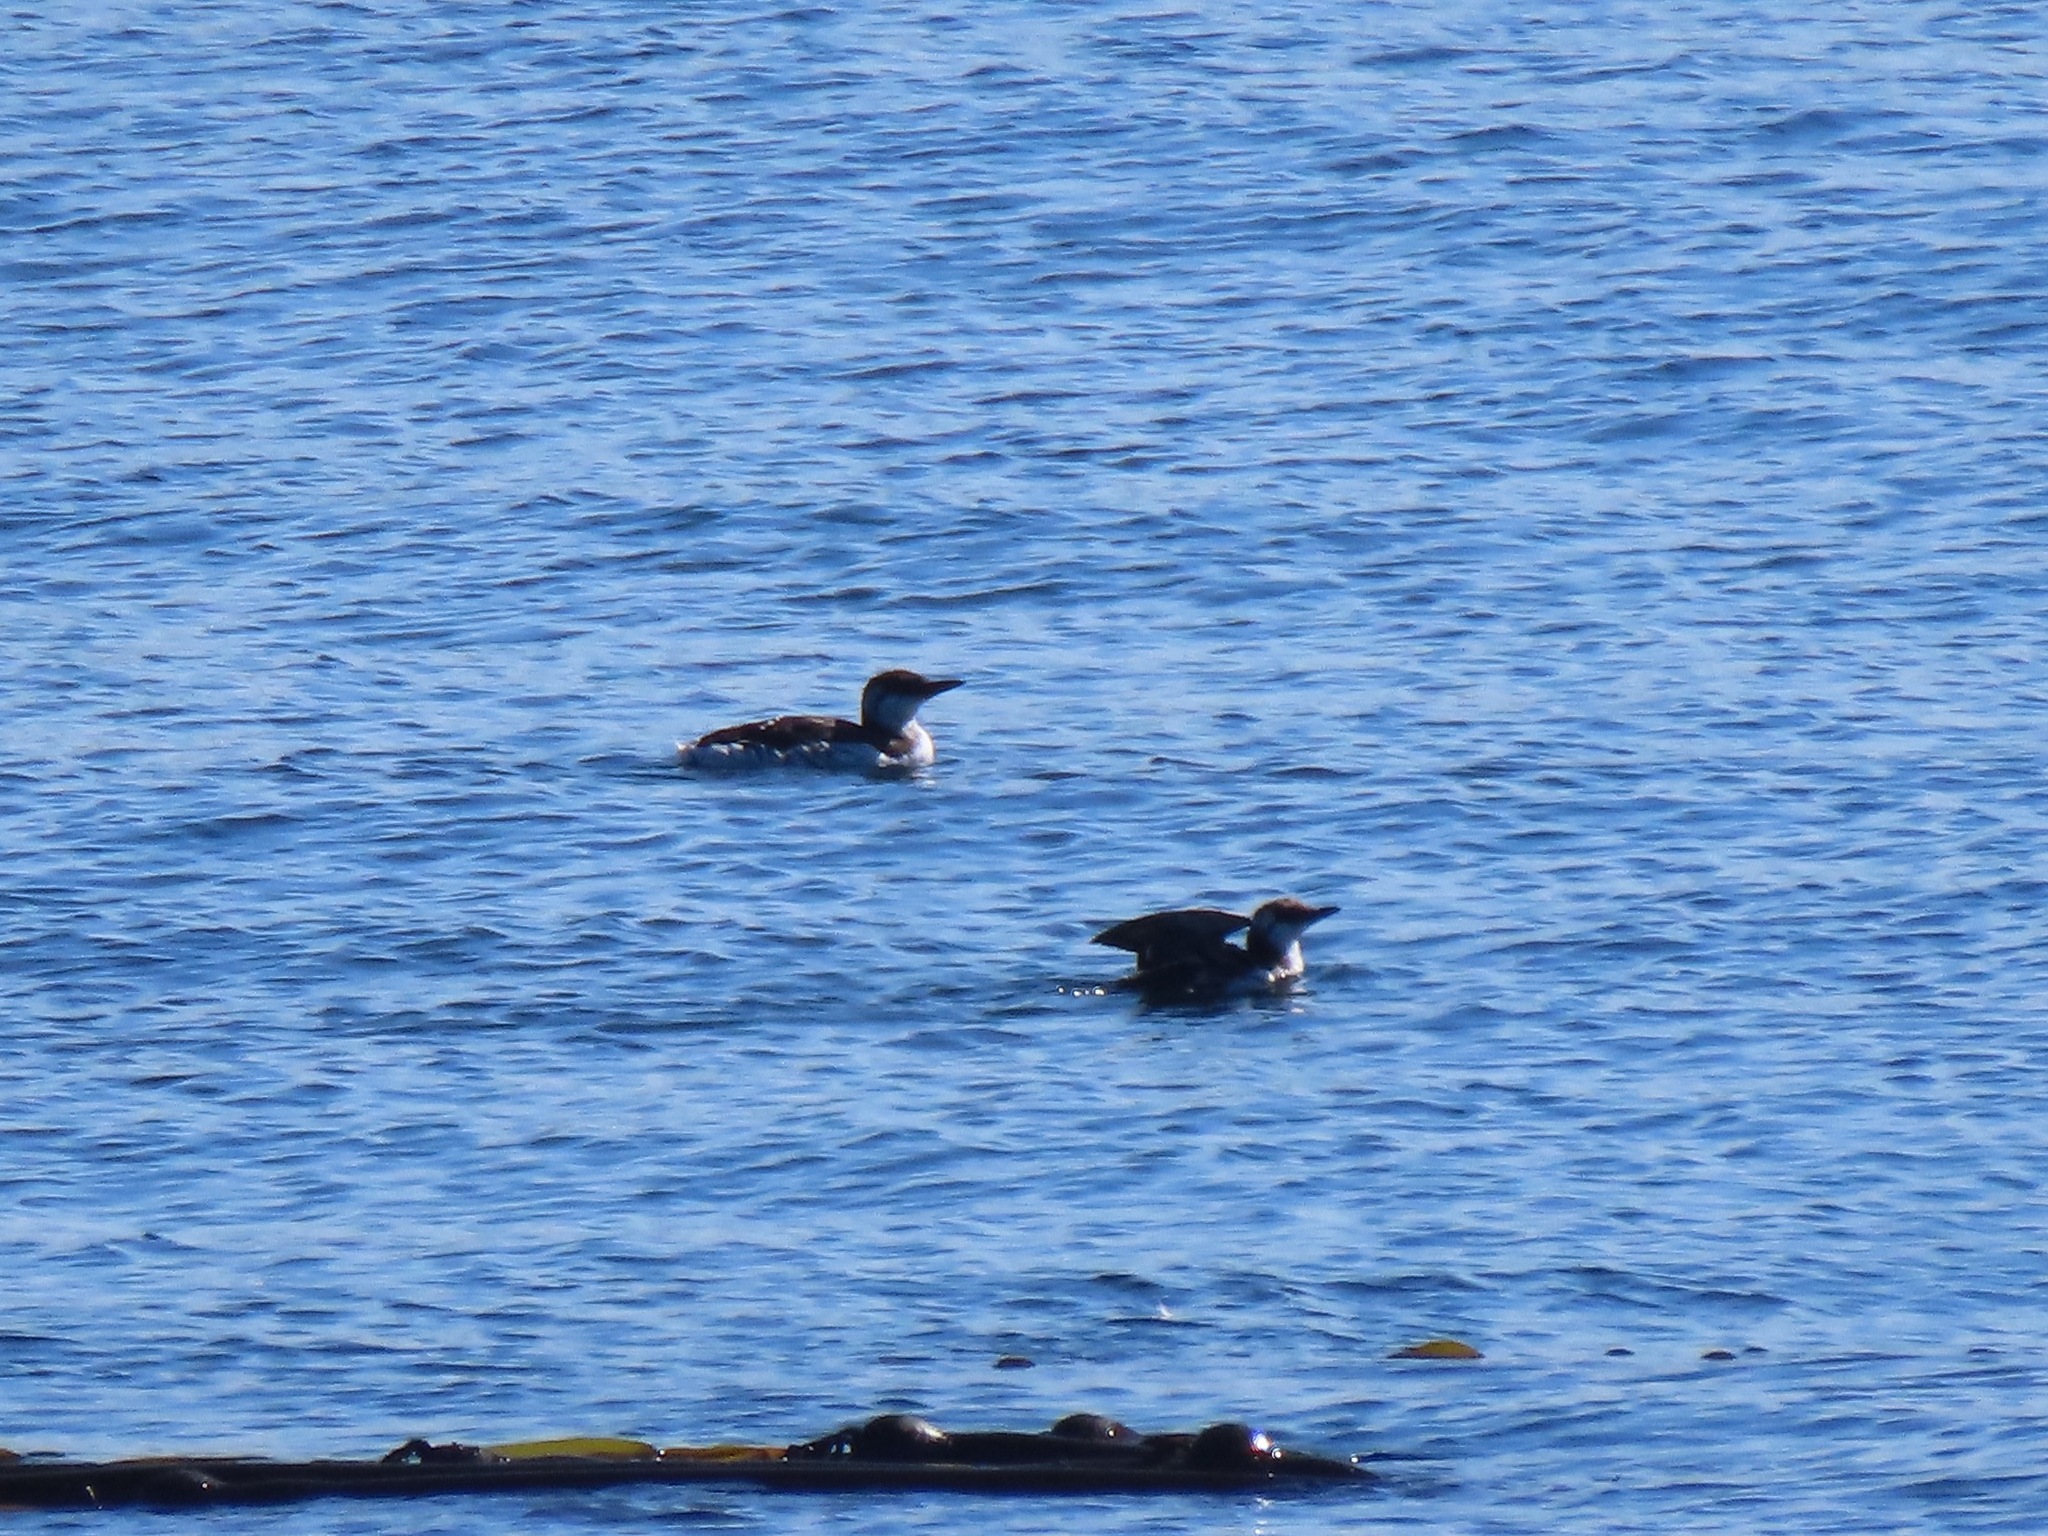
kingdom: Animalia
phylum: Chordata
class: Aves
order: Charadriiformes
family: Alcidae
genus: Uria
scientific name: Uria aalge
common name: Common murre
